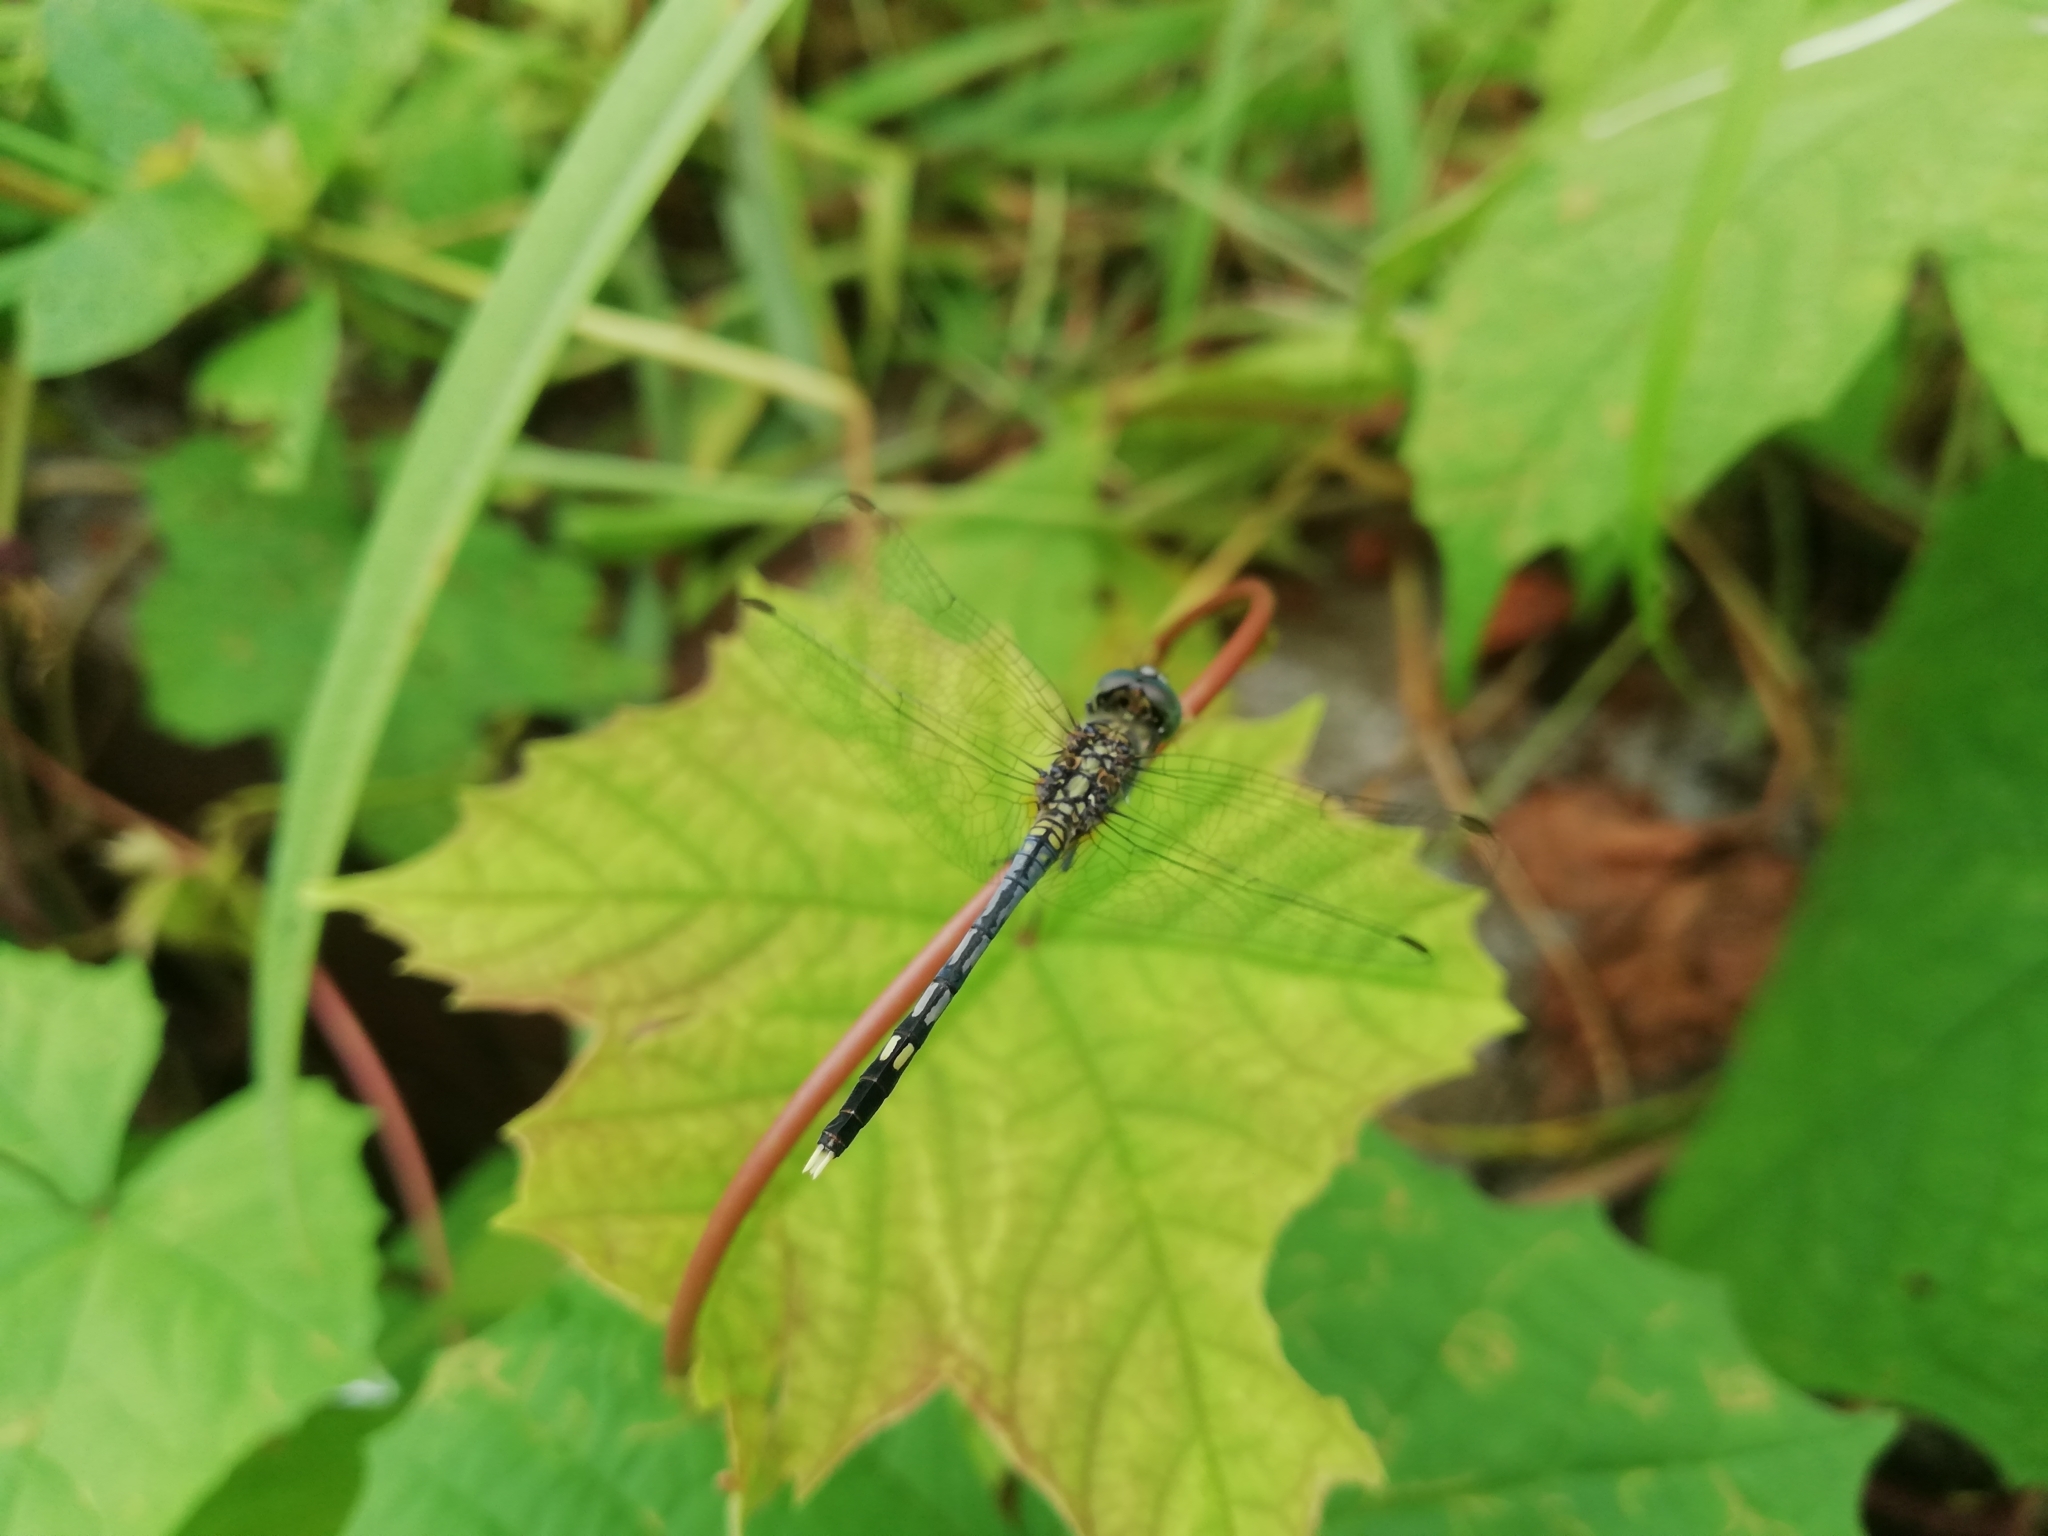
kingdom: Animalia
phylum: Arthropoda
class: Insecta
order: Odonata
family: Libellulidae
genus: Diplacodes
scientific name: Diplacodes trivialis
